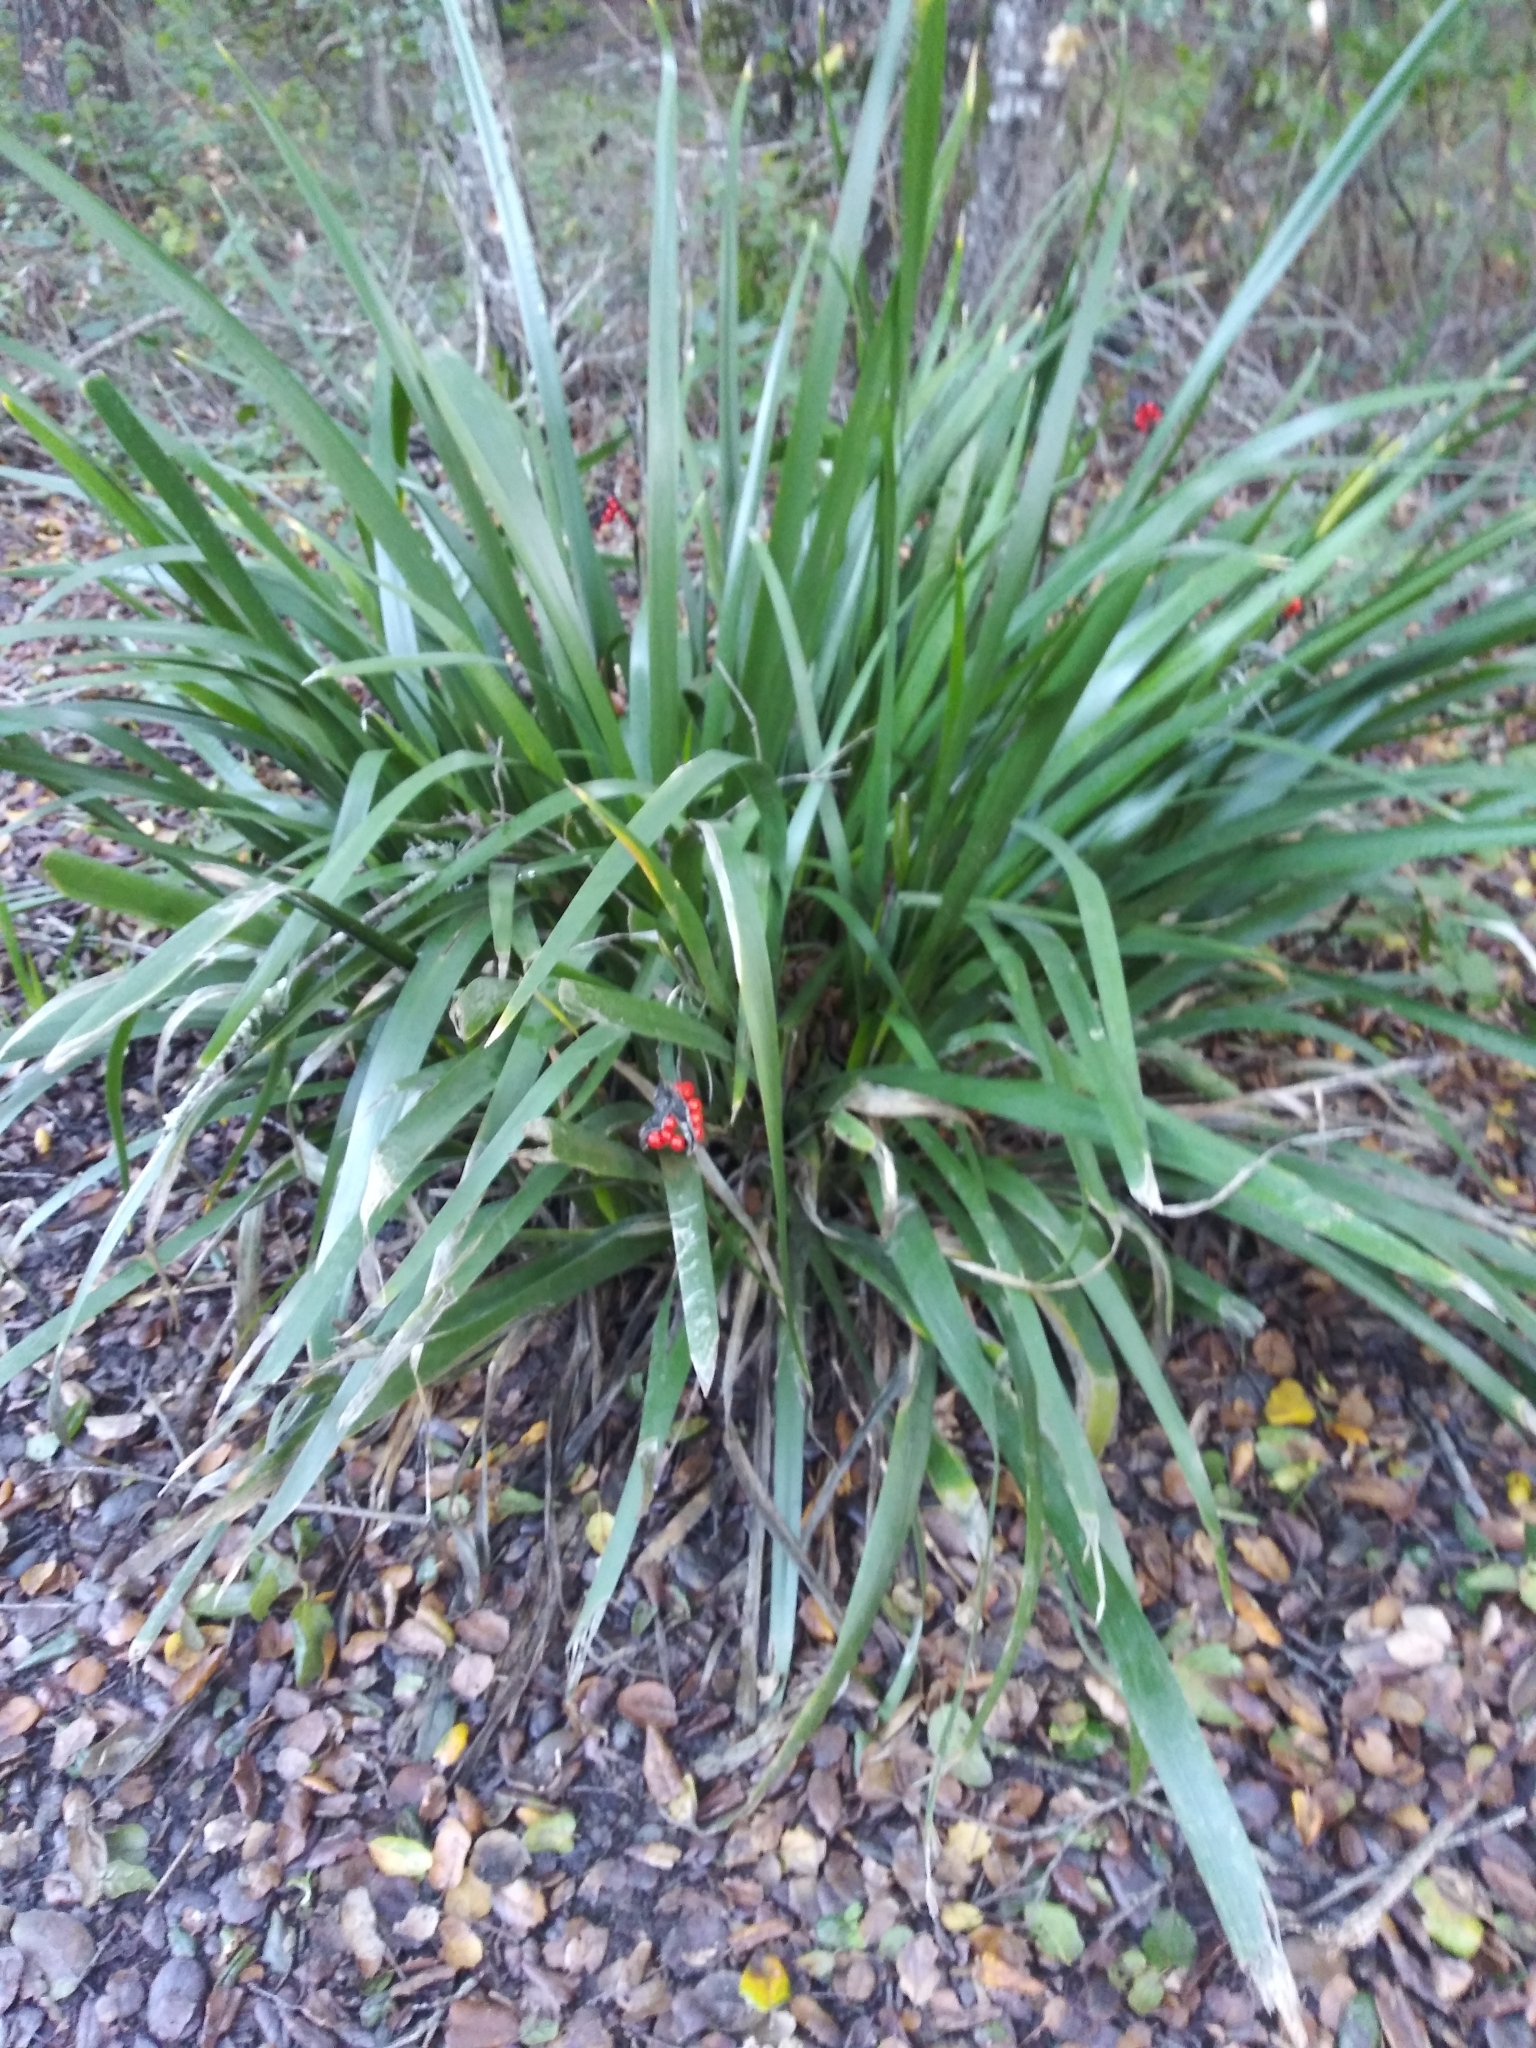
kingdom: Plantae
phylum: Tracheophyta
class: Liliopsida
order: Asparagales
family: Iridaceae
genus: Iris
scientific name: Iris foetidissima
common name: Stinking iris
